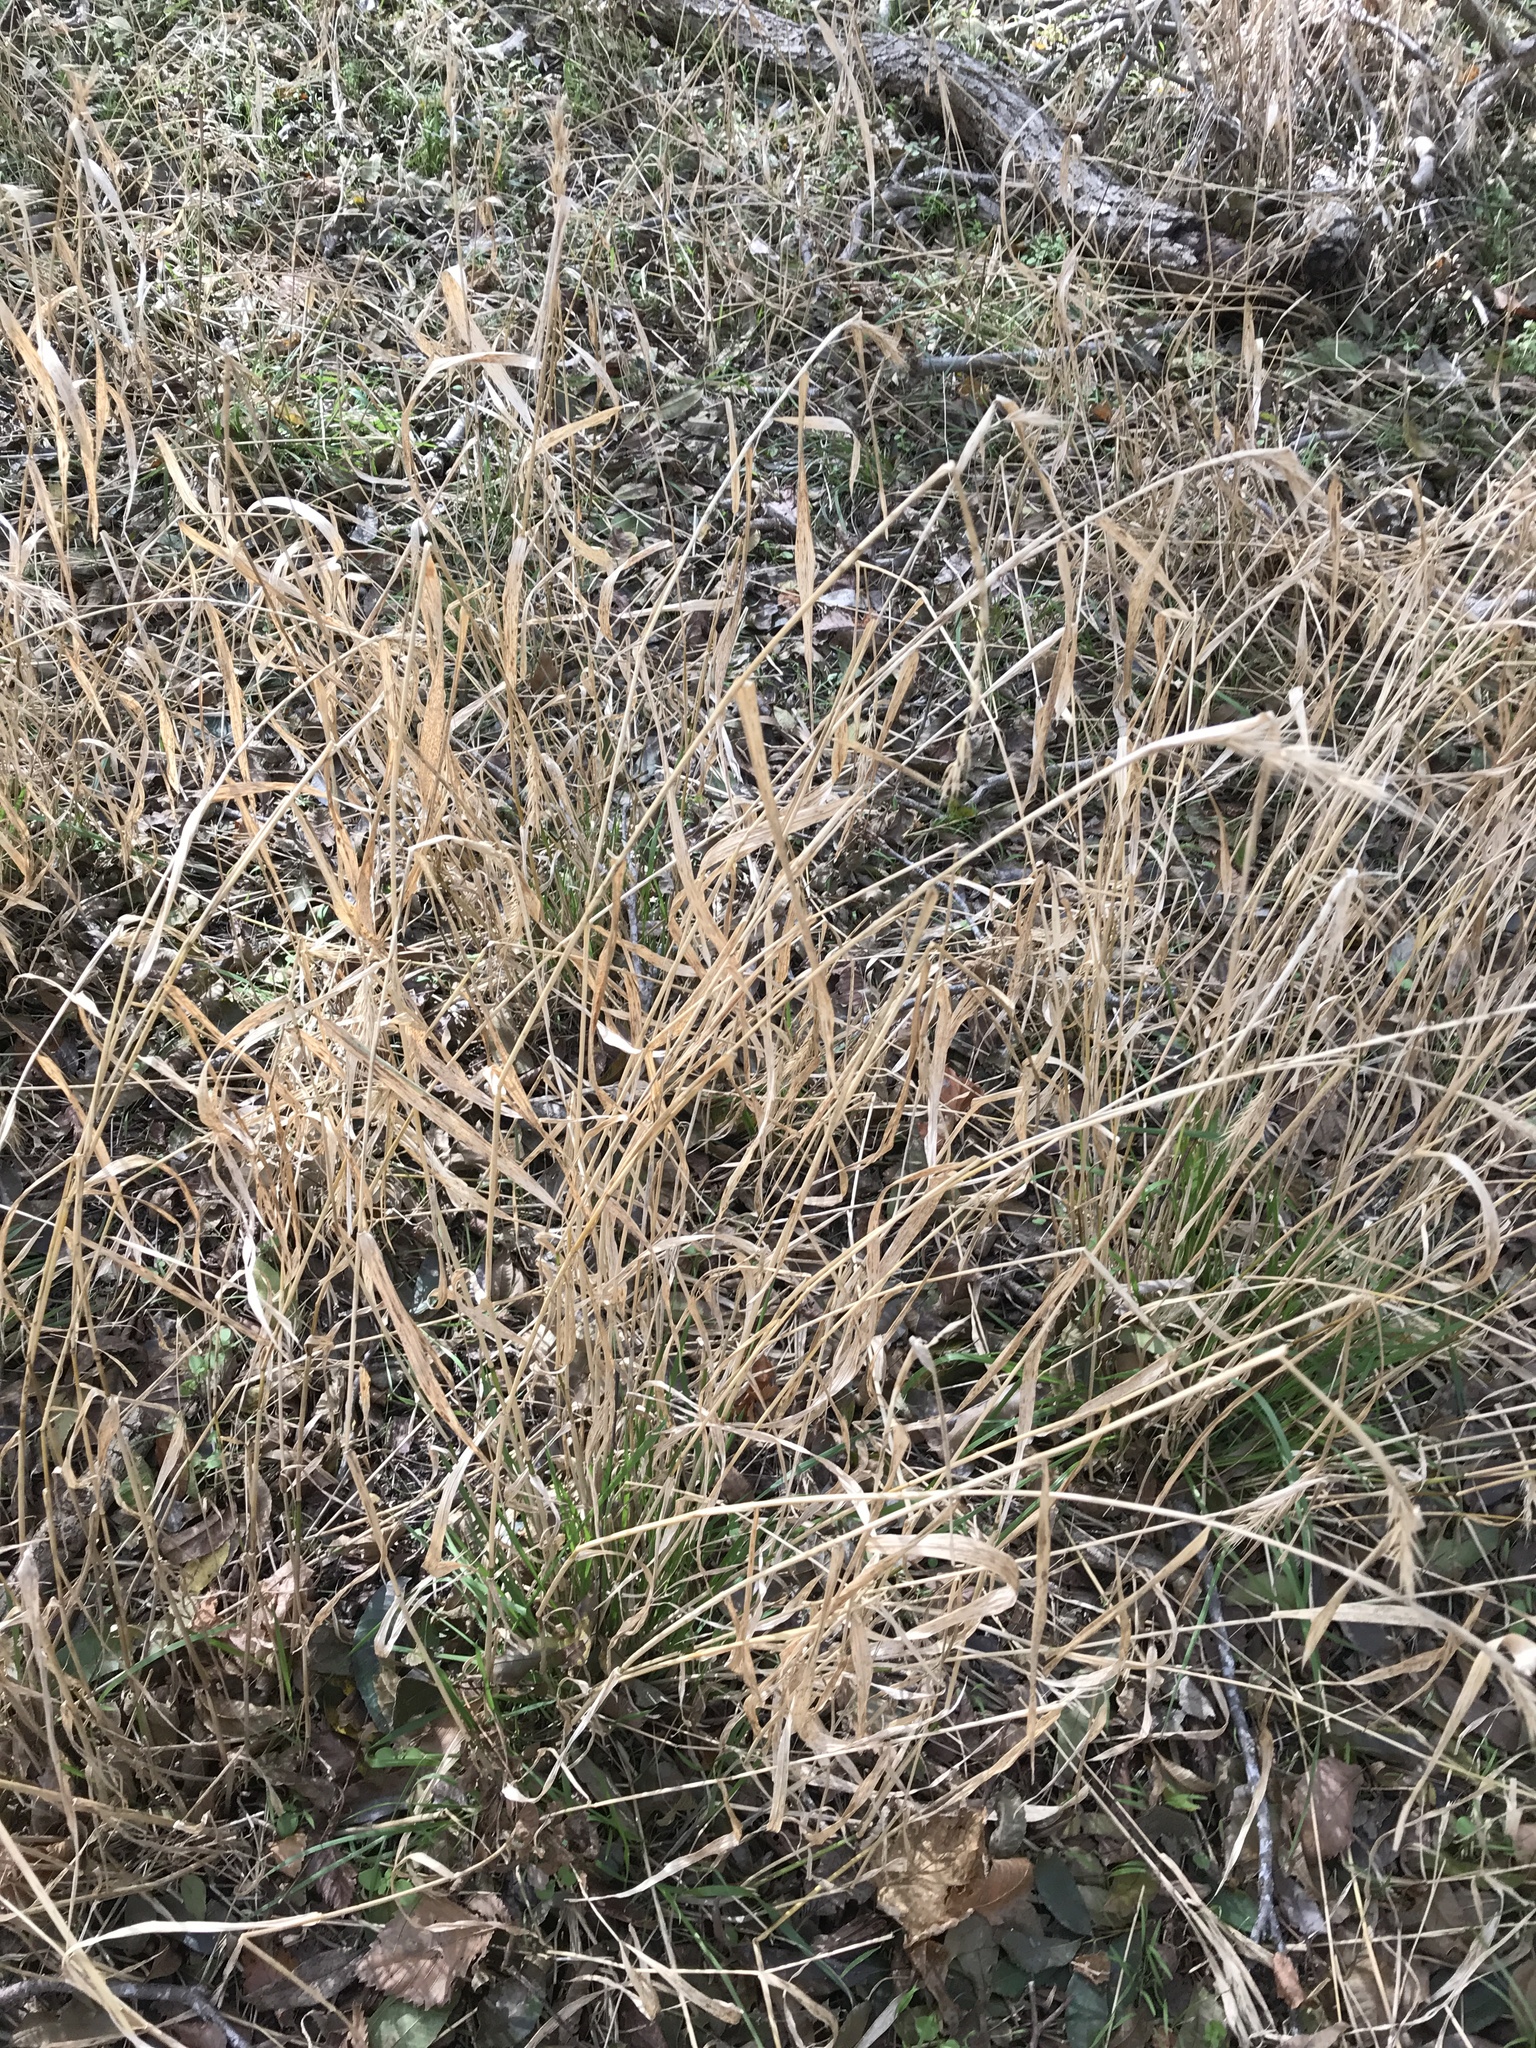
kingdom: Plantae
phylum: Tracheophyta
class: Liliopsida
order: Poales
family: Poaceae
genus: Elymus
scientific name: Elymus virginicus
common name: Common eastern wildrye
